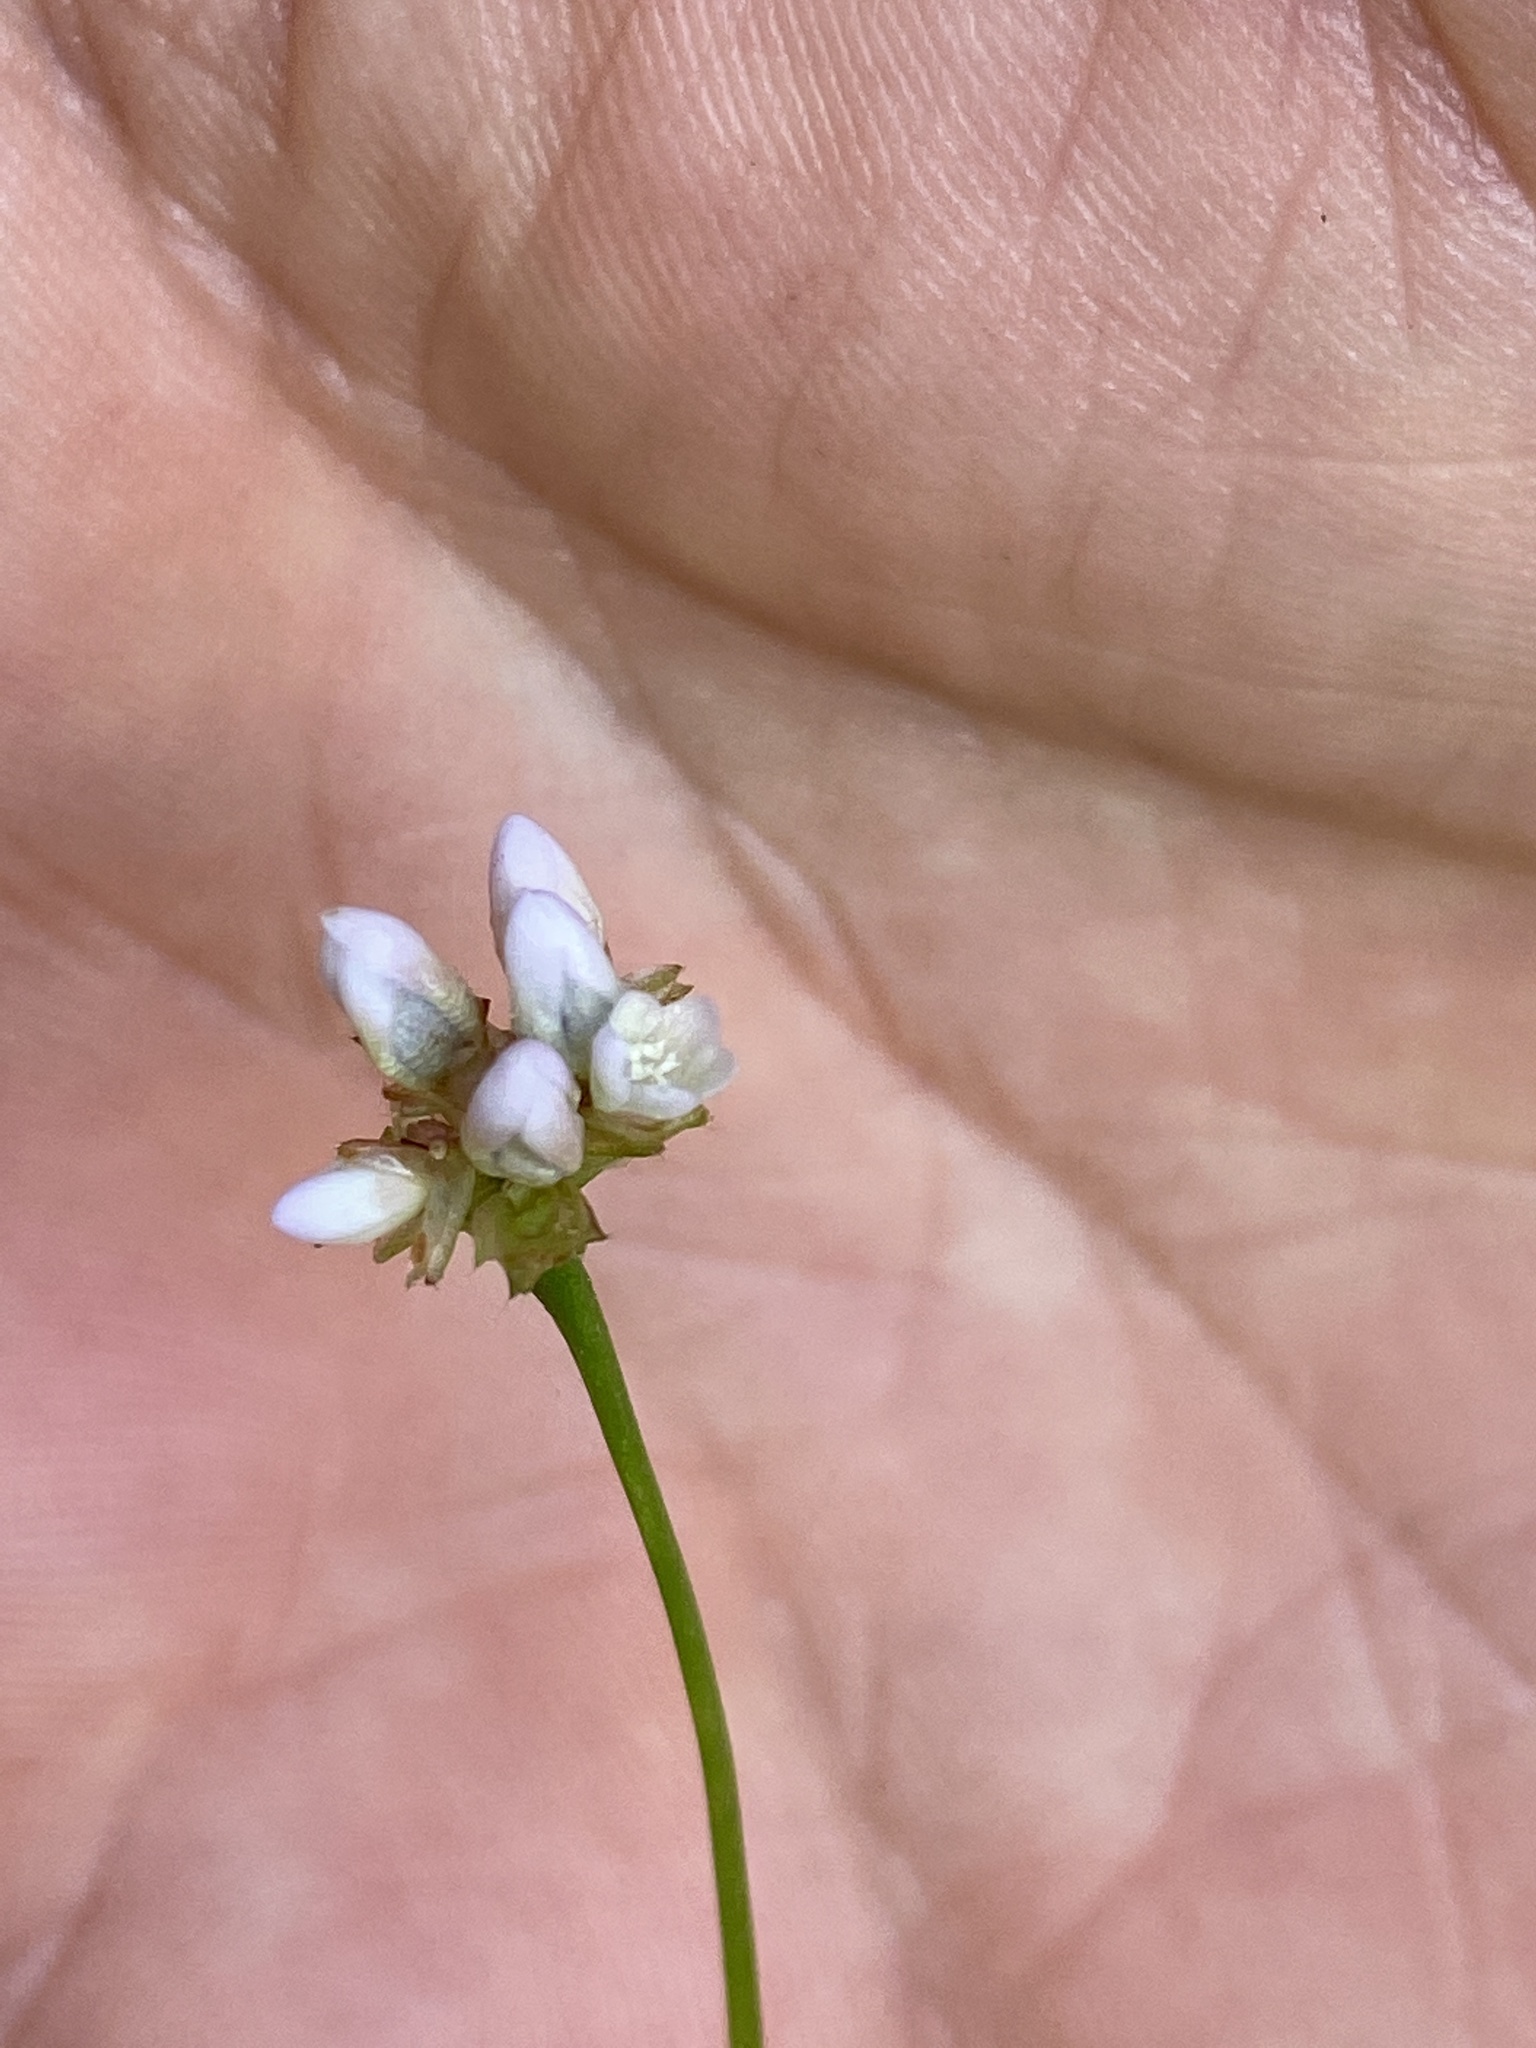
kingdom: Plantae
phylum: Tracheophyta
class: Magnoliopsida
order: Caryophyllales
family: Polygonaceae
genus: Persicaria
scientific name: Persicaria sagittata
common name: American tearthumb
